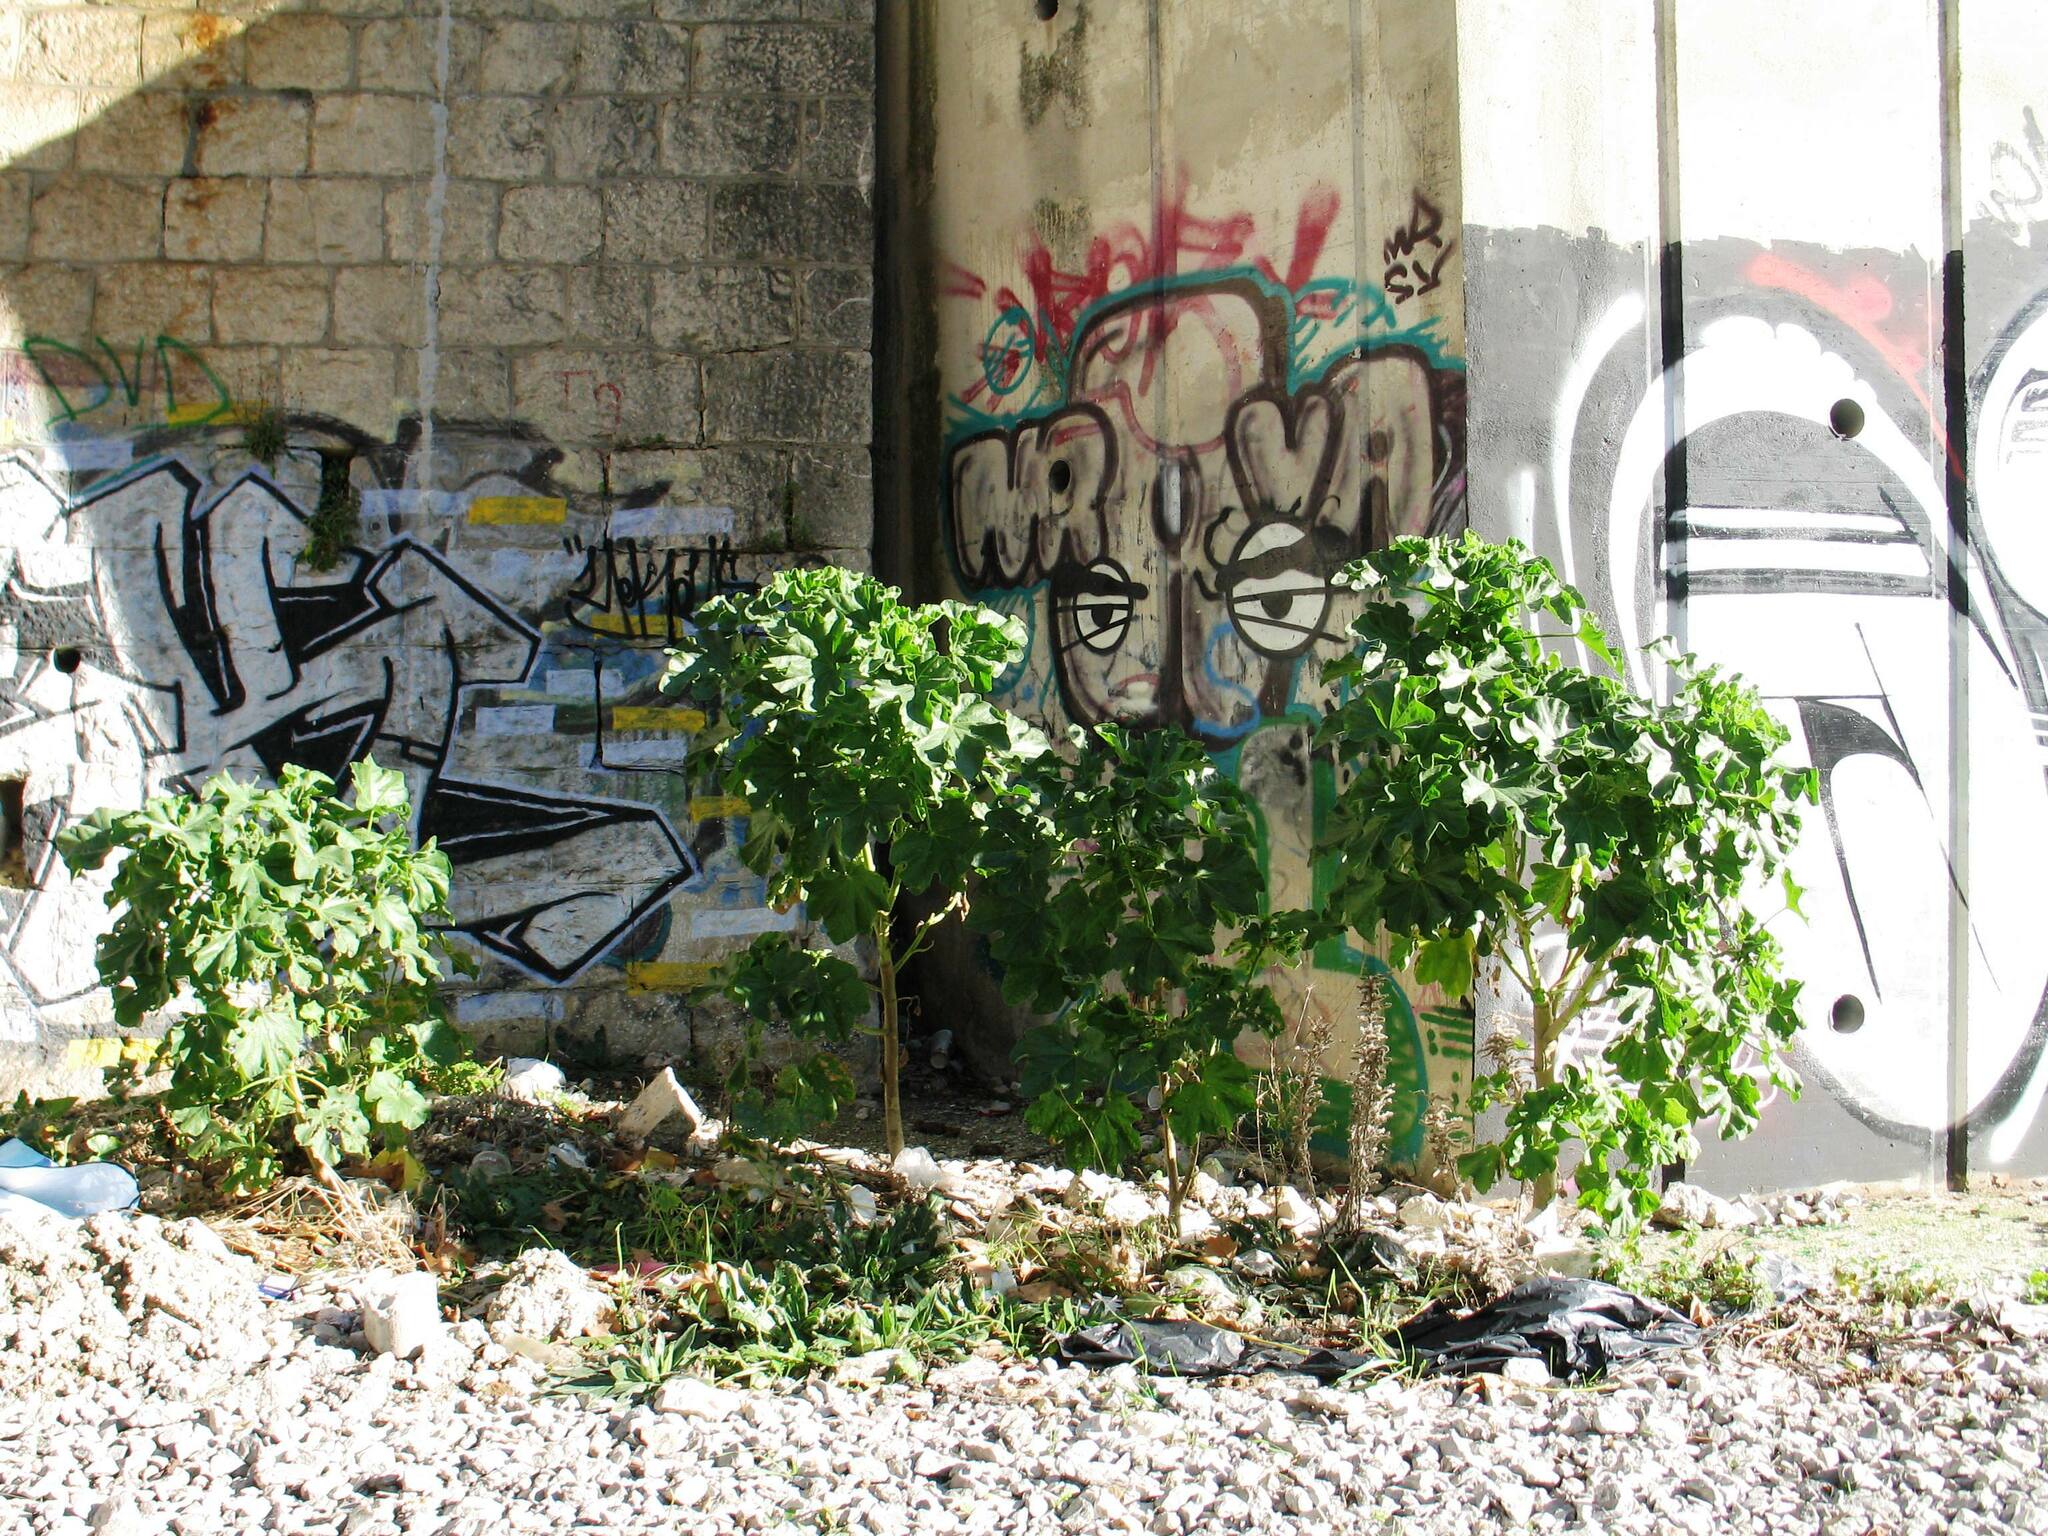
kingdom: Plantae
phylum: Tracheophyta
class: Magnoliopsida
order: Malvales
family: Malvaceae
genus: Malva
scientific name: Malva arborea
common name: Tree mallow
